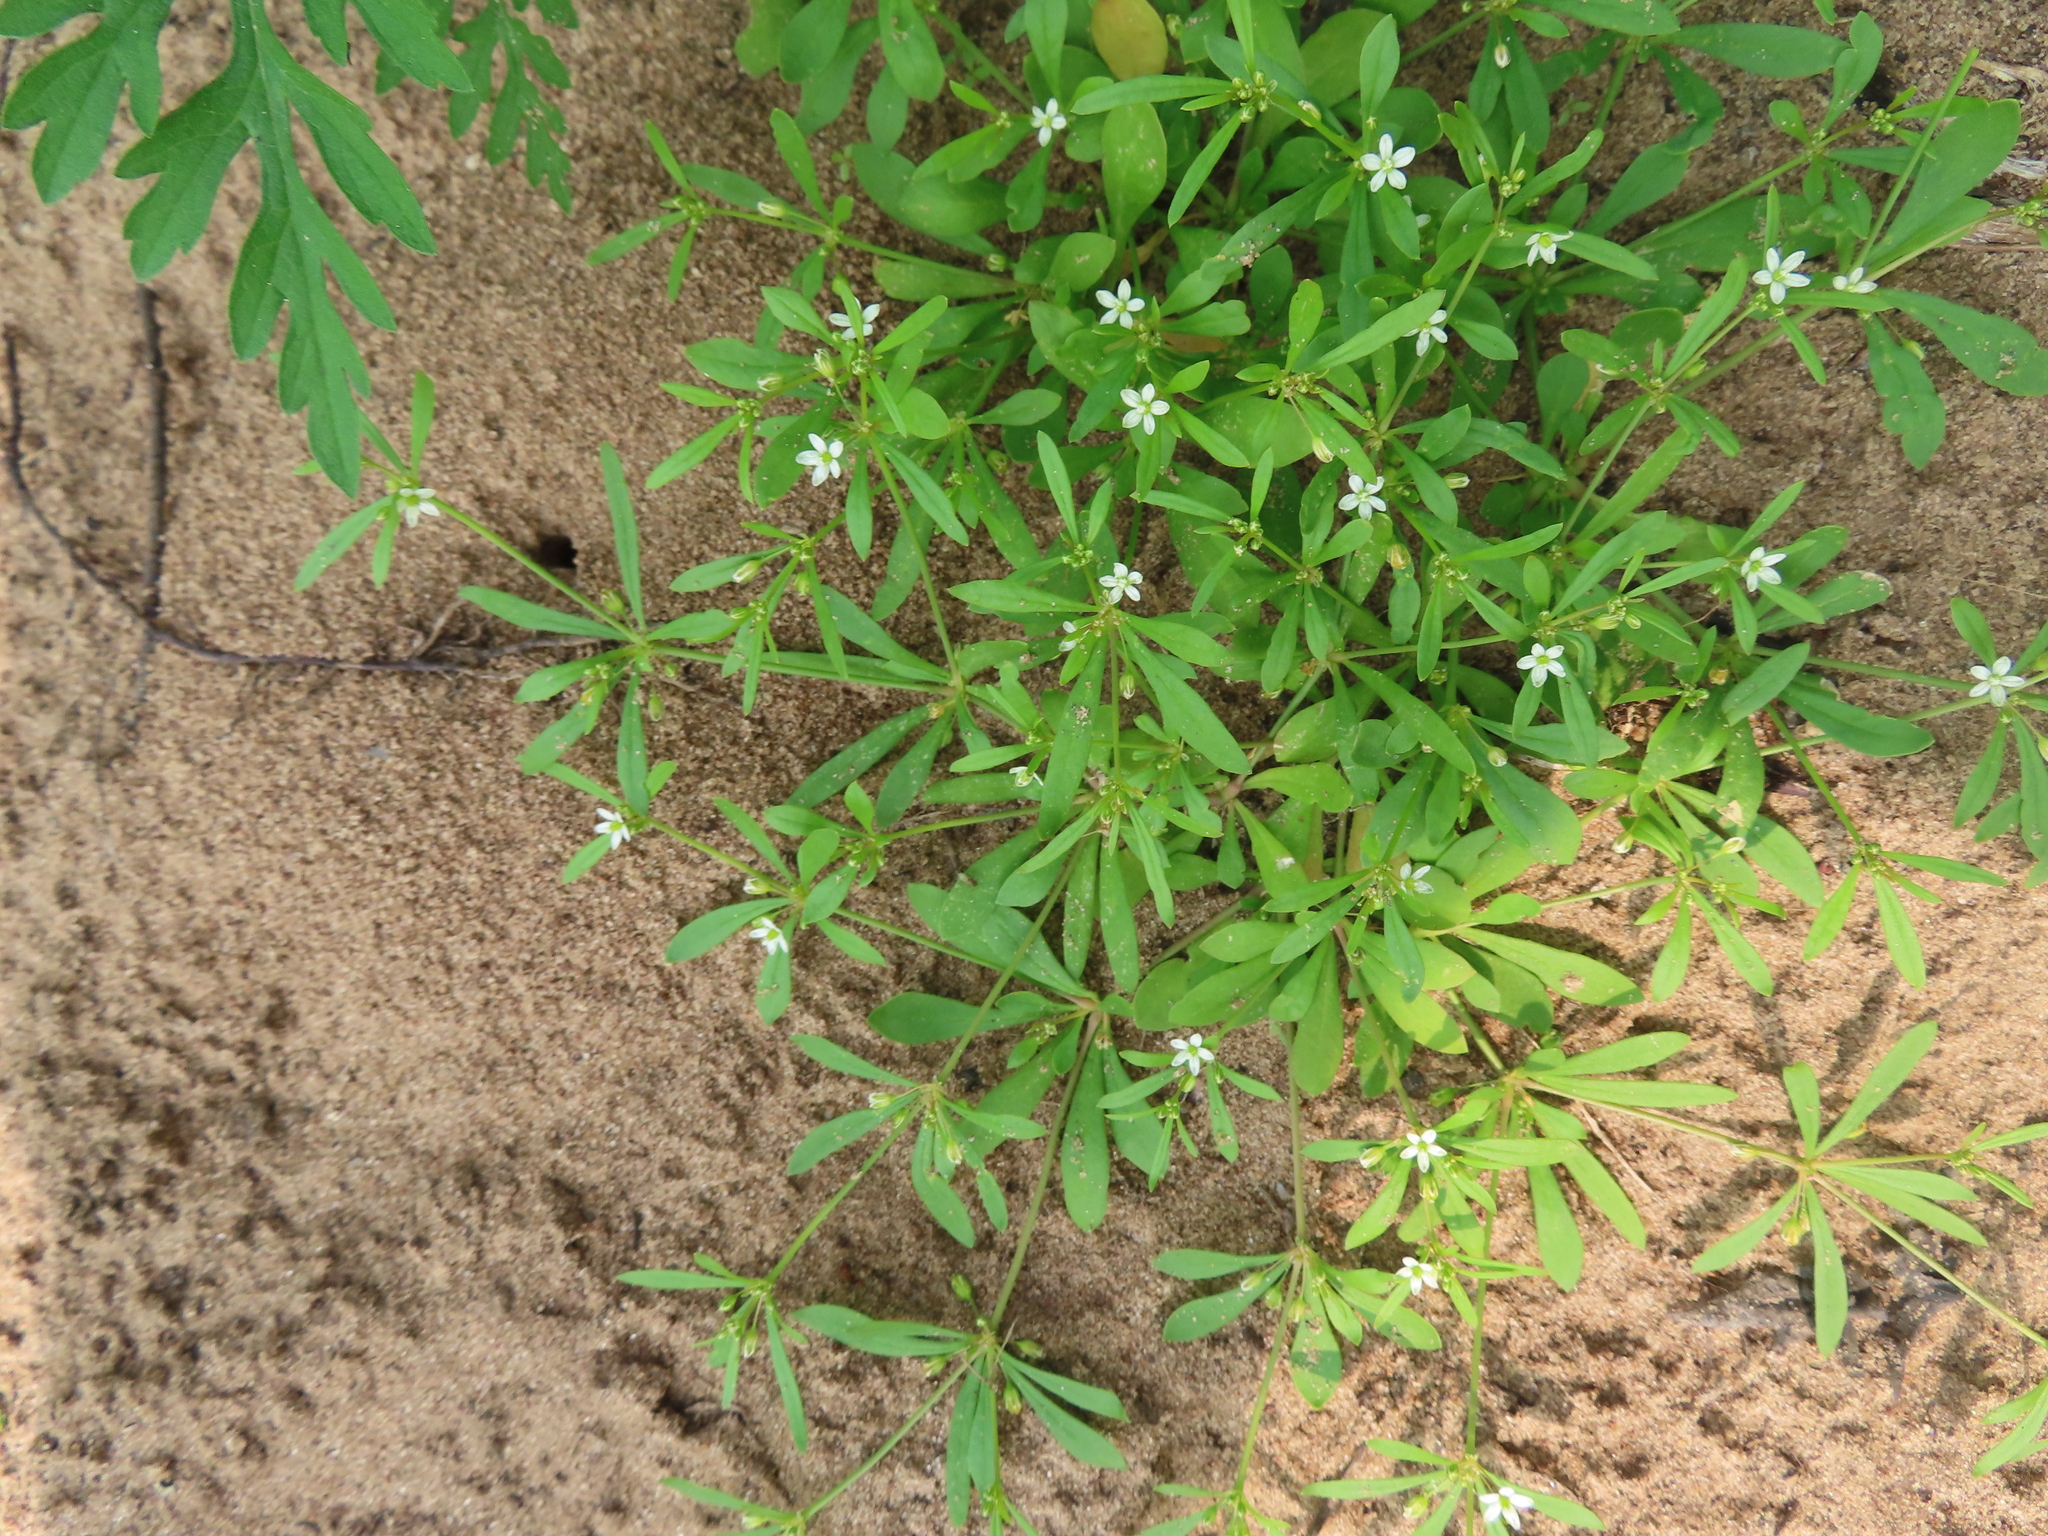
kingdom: Plantae
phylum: Tracheophyta
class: Magnoliopsida
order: Caryophyllales
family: Molluginaceae
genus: Mollugo
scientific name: Mollugo verticillata
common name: Green carpetweed
